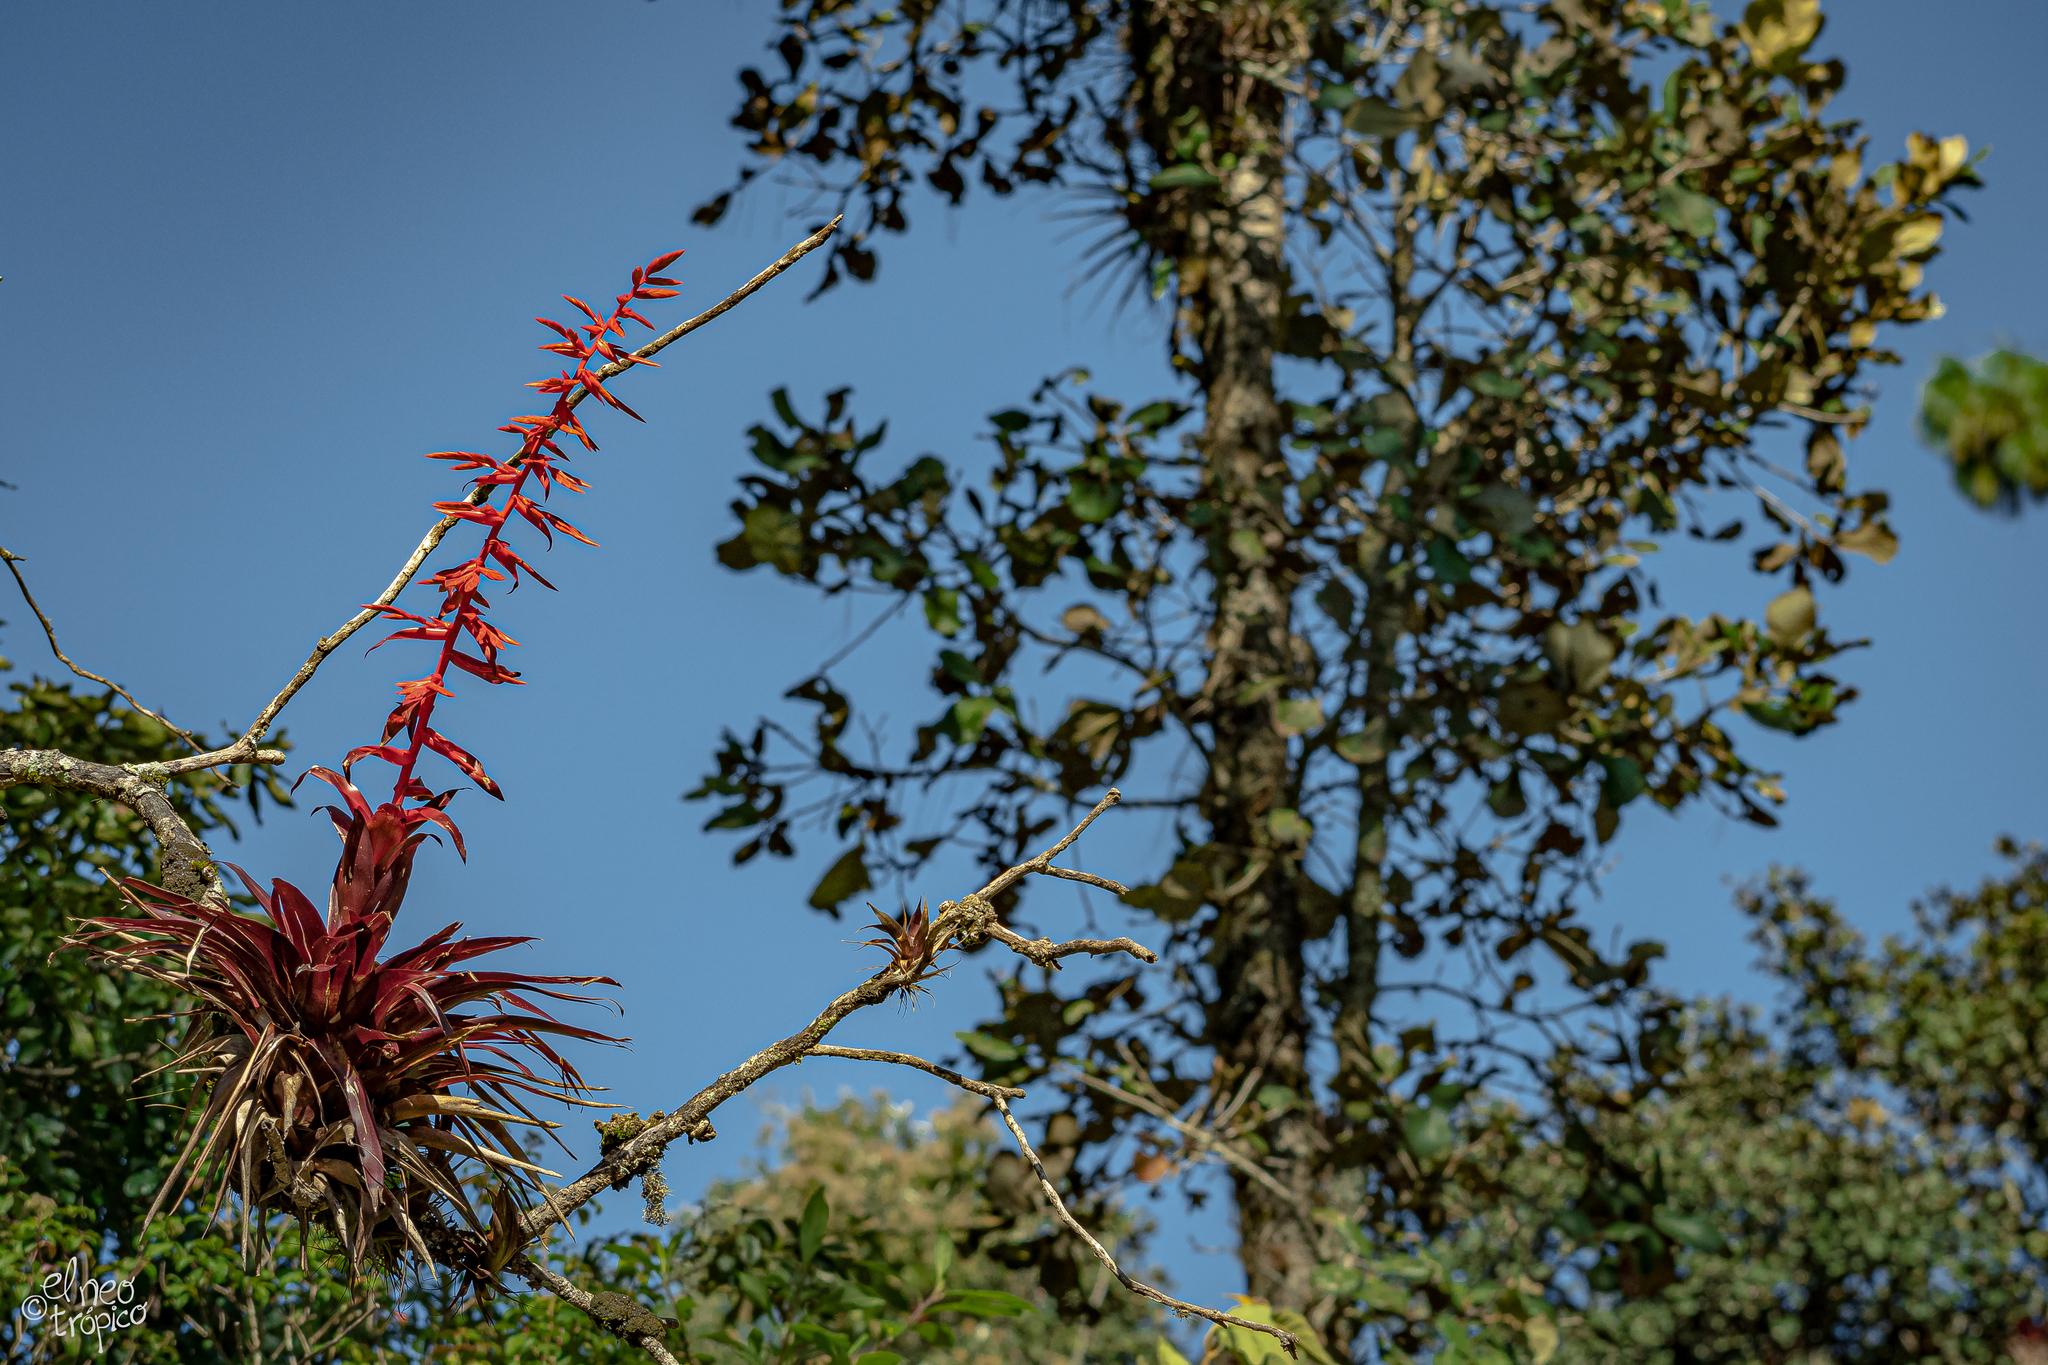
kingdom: Plantae
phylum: Tracheophyta
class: Liliopsida
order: Poales
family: Bromeliaceae
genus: Tillandsia
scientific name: Tillandsia guatemalensis
